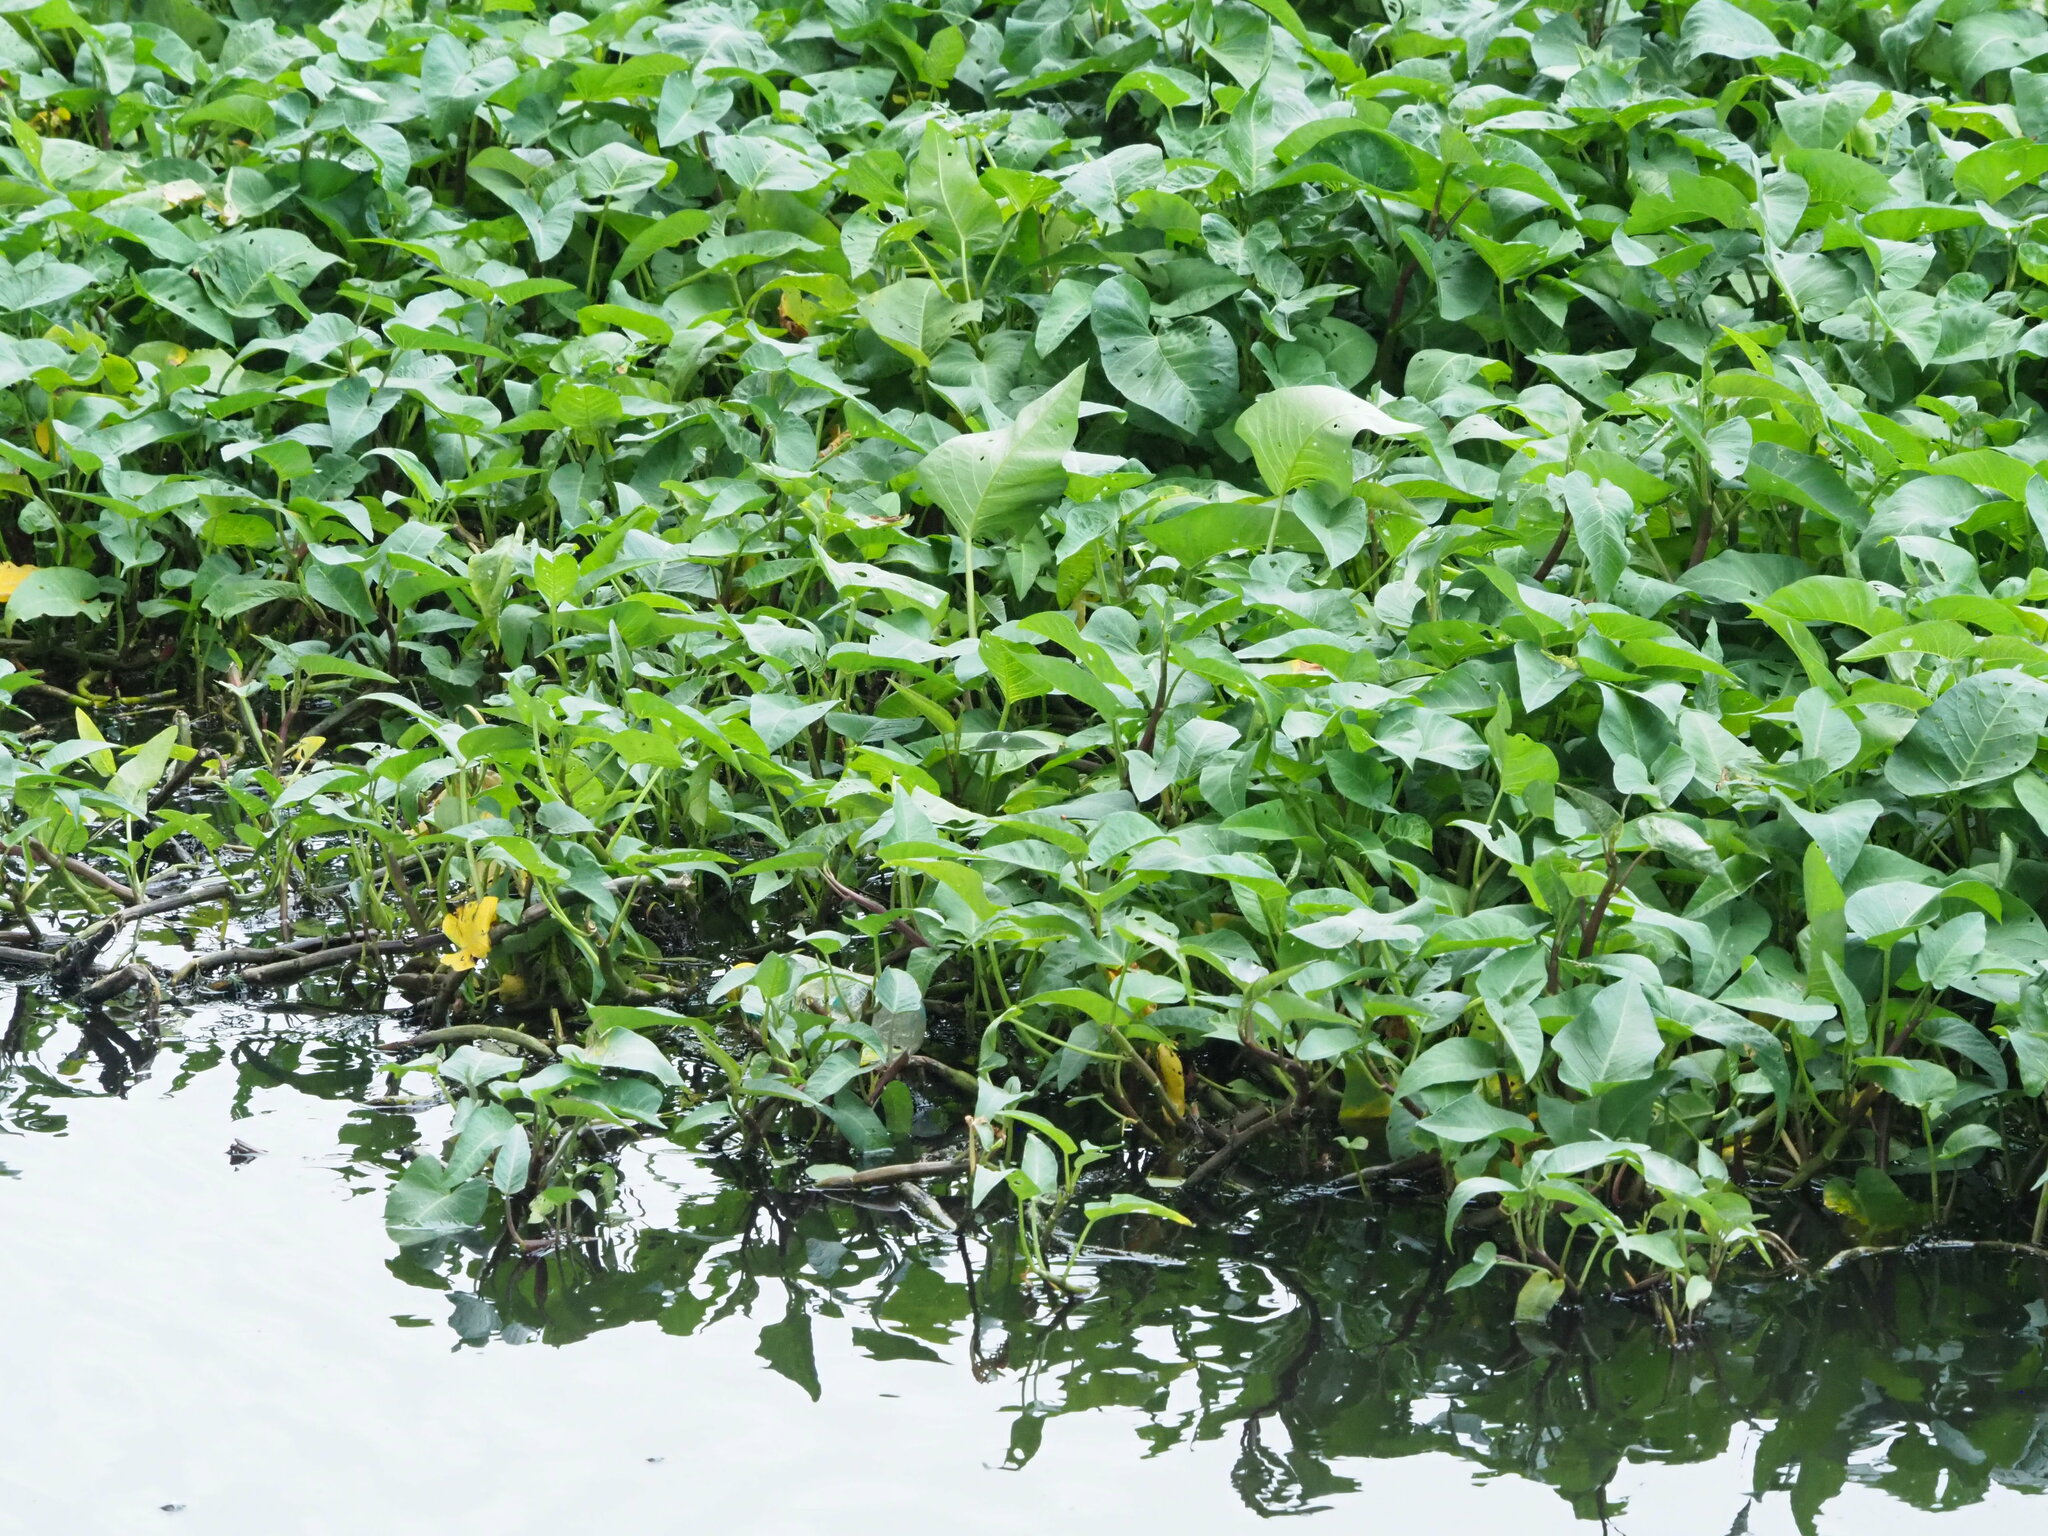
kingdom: Plantae
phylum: Tracheophyta
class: Magnoliopsida
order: Solanales
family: Convolvulaceae
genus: Ipomoea
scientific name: Ipomoea aquatica
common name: Swamp morning-glory
